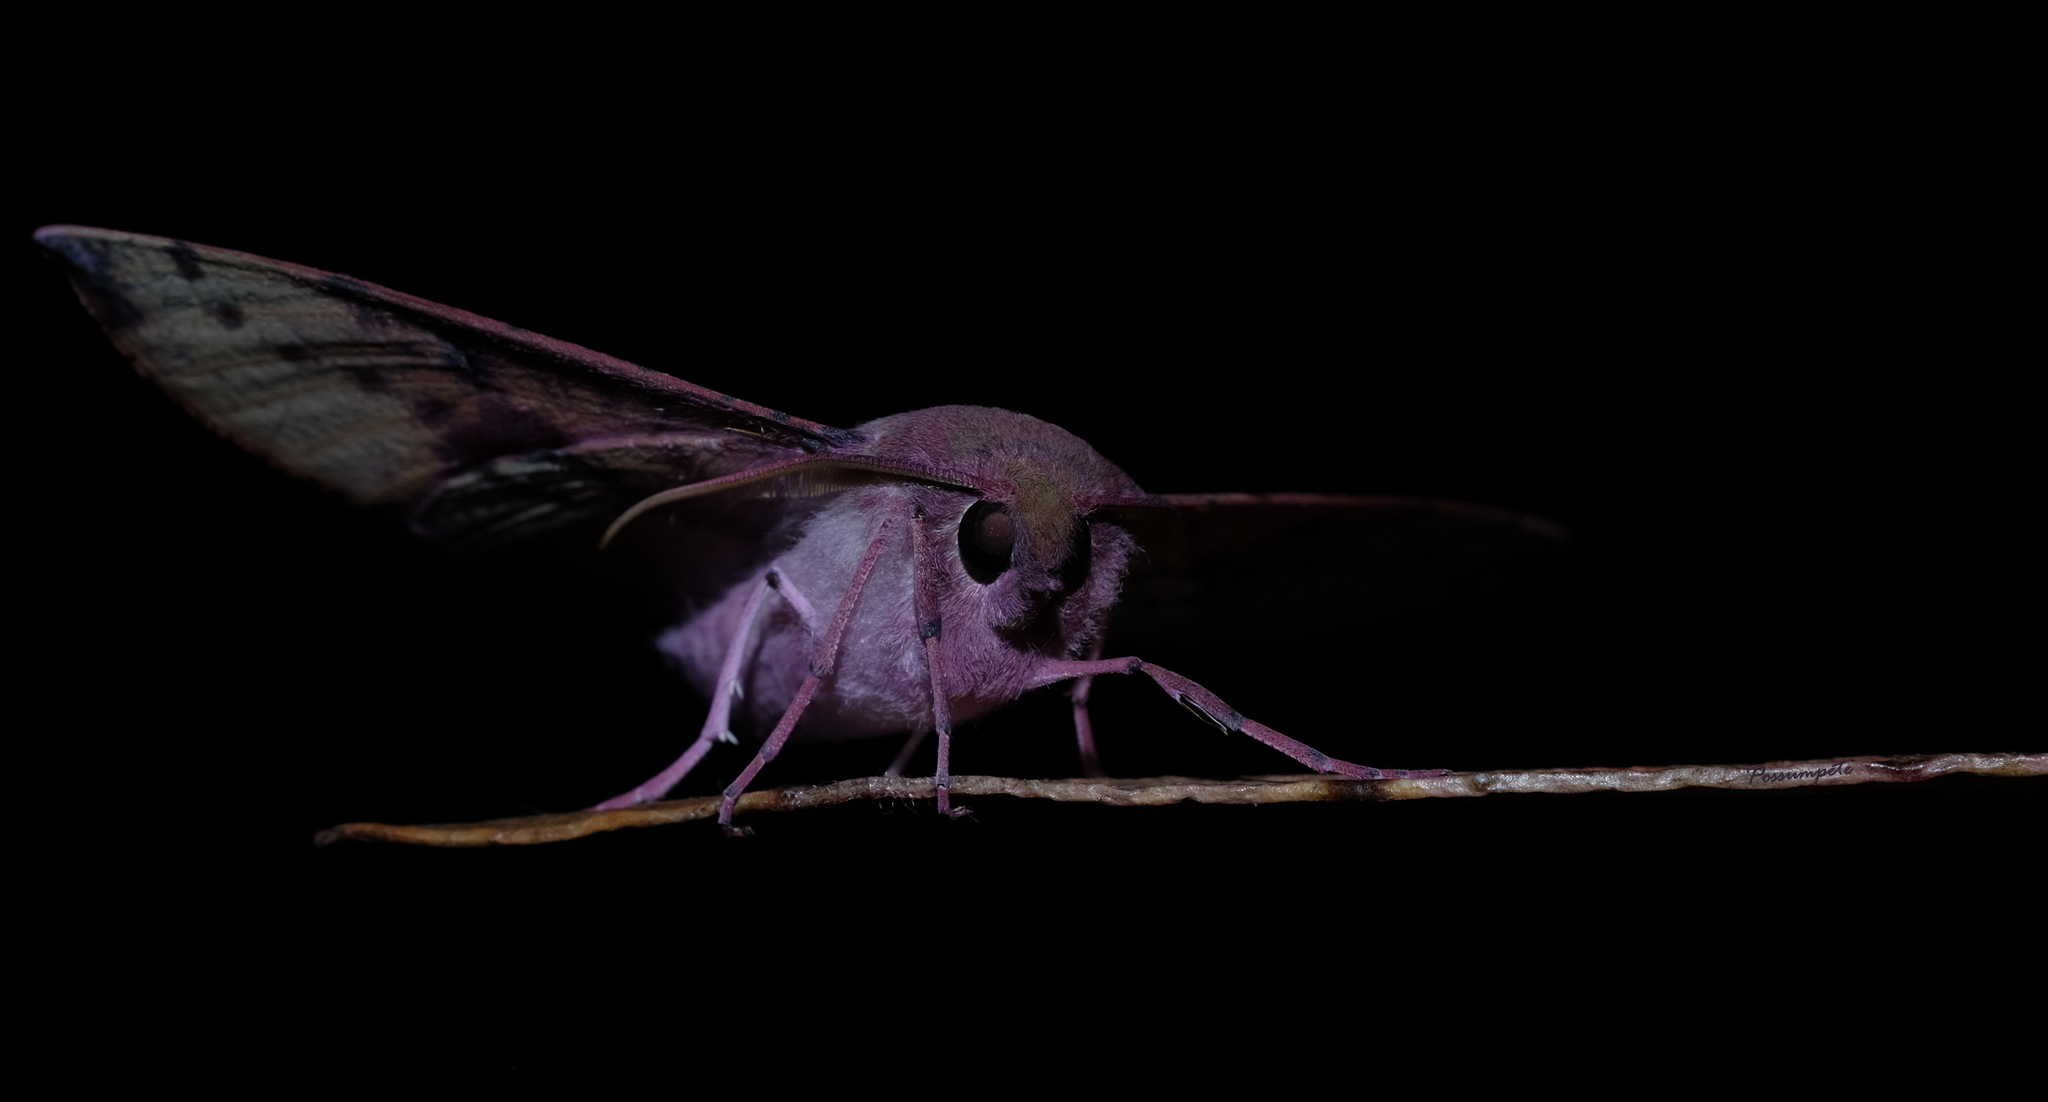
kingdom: Animalia
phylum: Arthropoda
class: Insecta
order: Lepidoptera
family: Geometridae
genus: Oenochroma
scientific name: Oenochroma vinaria
